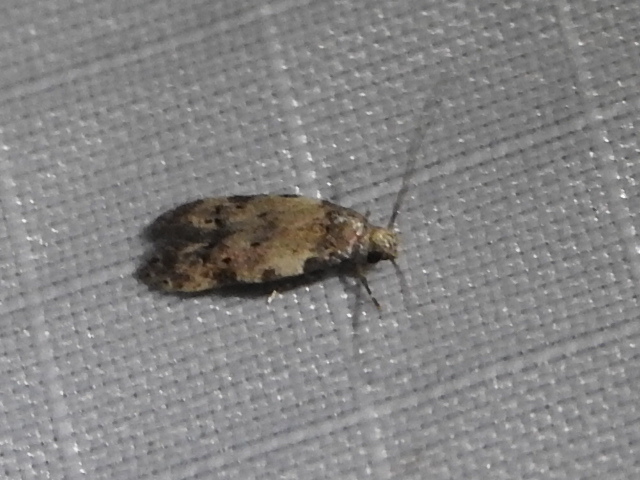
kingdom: Animalia
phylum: Arthropoda
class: Insecta
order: Lepidoptera
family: Autostichidae
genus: Taygete
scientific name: Taygete attributella
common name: Triangle-marked twirler moth
